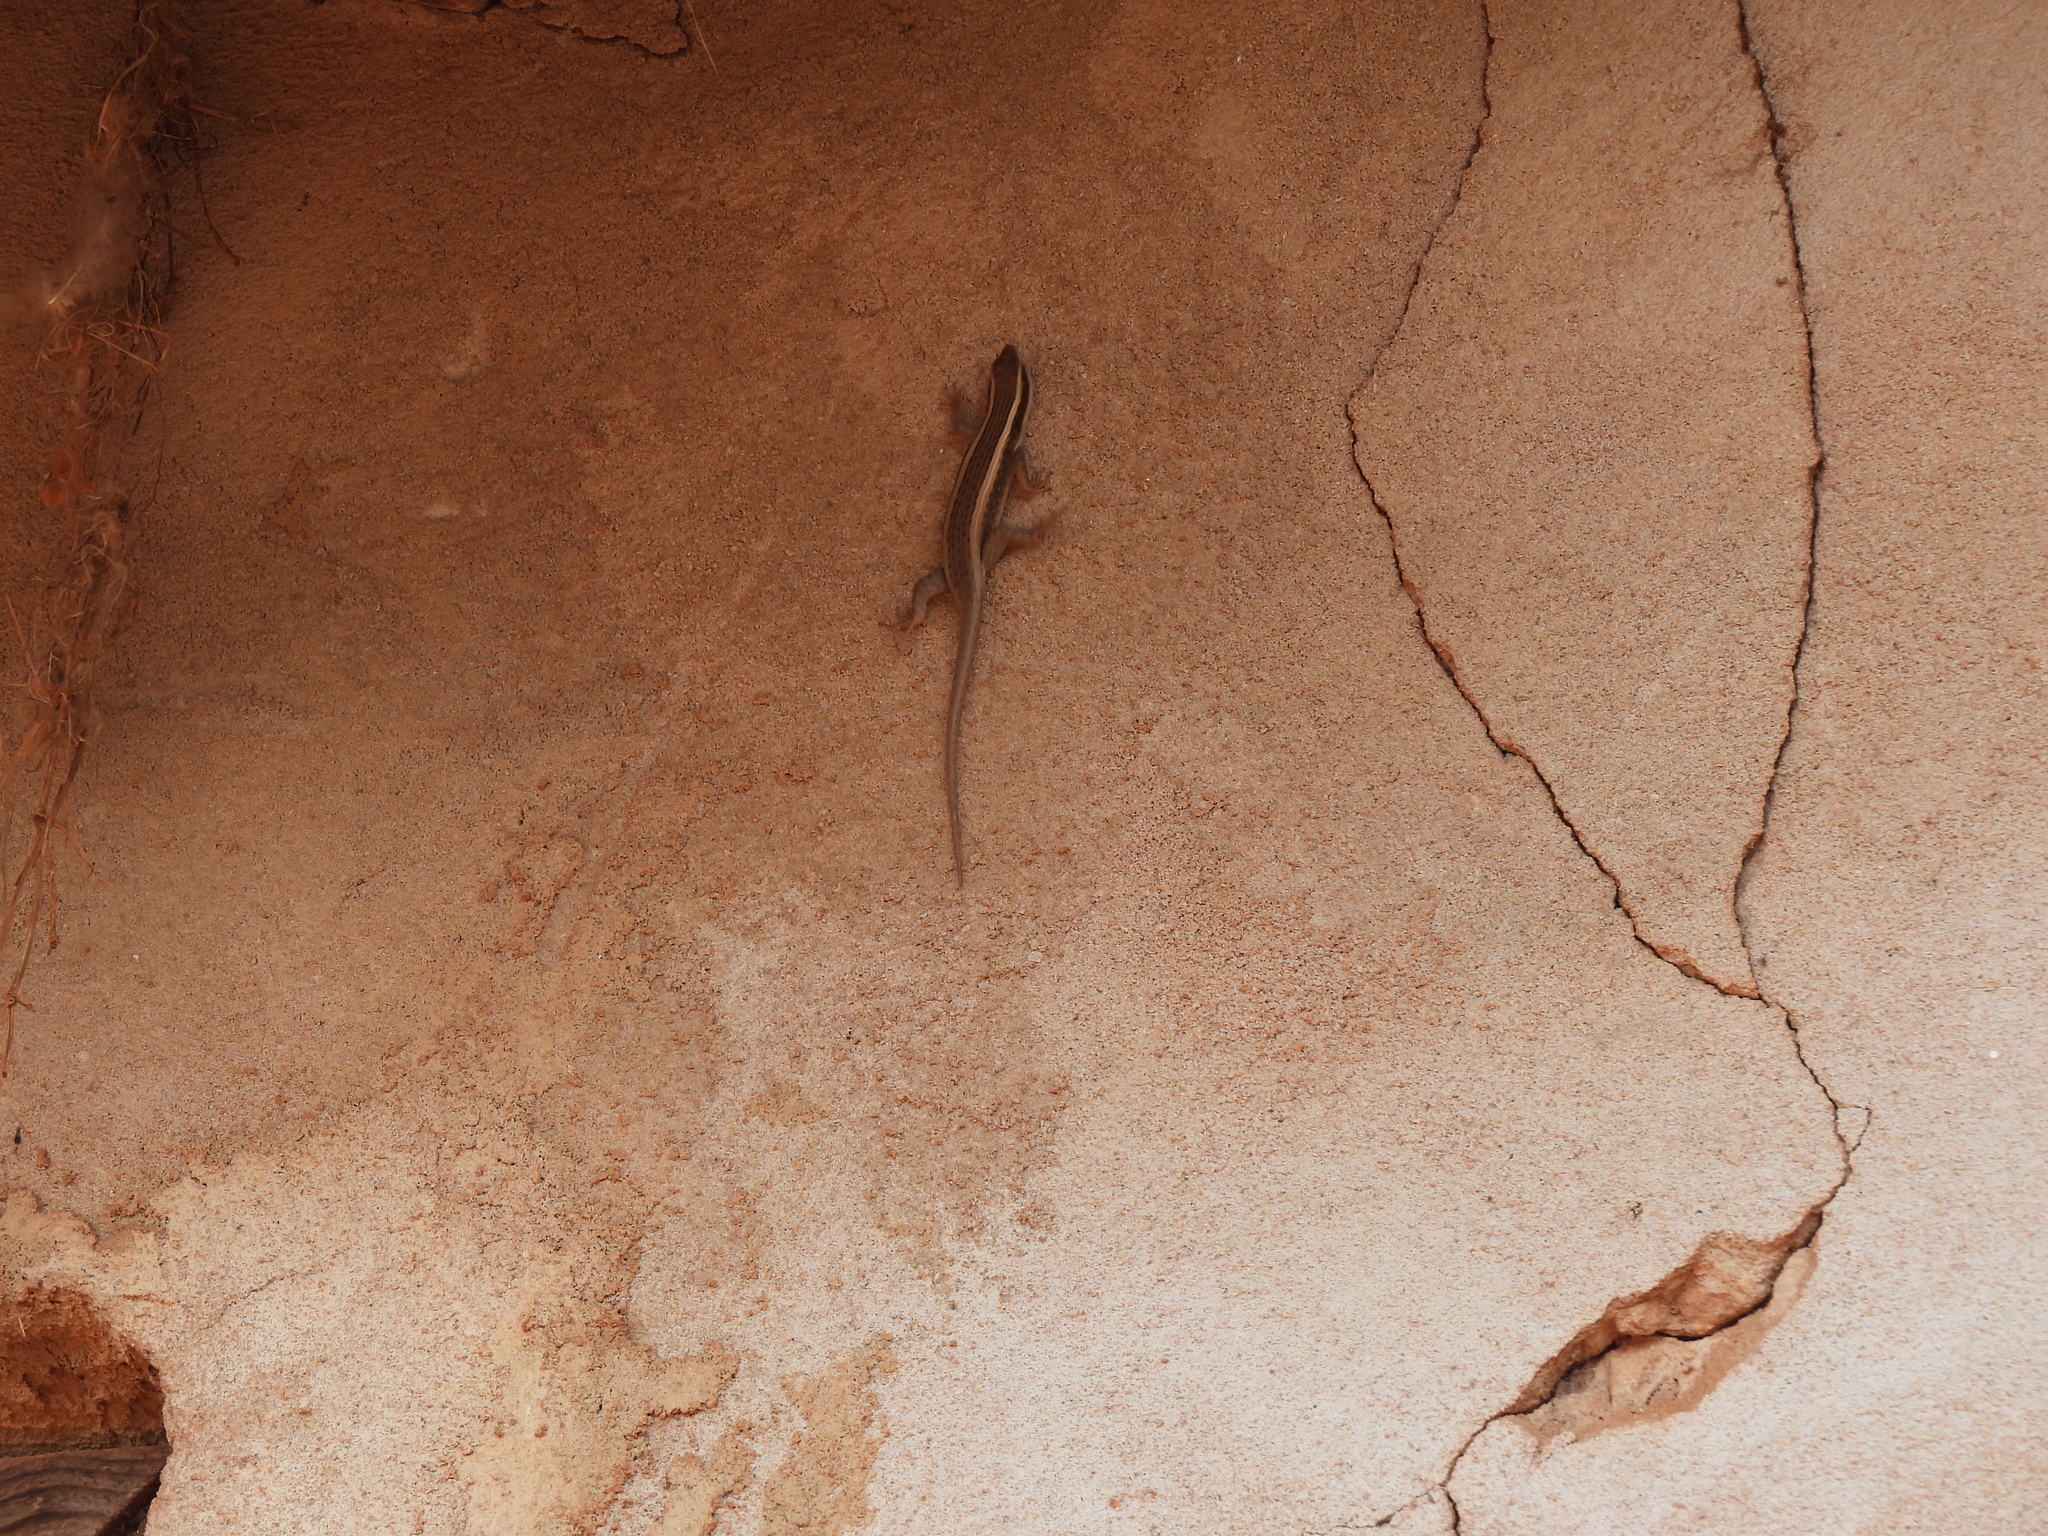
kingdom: Animalia
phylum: Chordata
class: Squamata
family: Scincidae
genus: Trachylepis
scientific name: Trachylepis striata
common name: African striped mabuya
